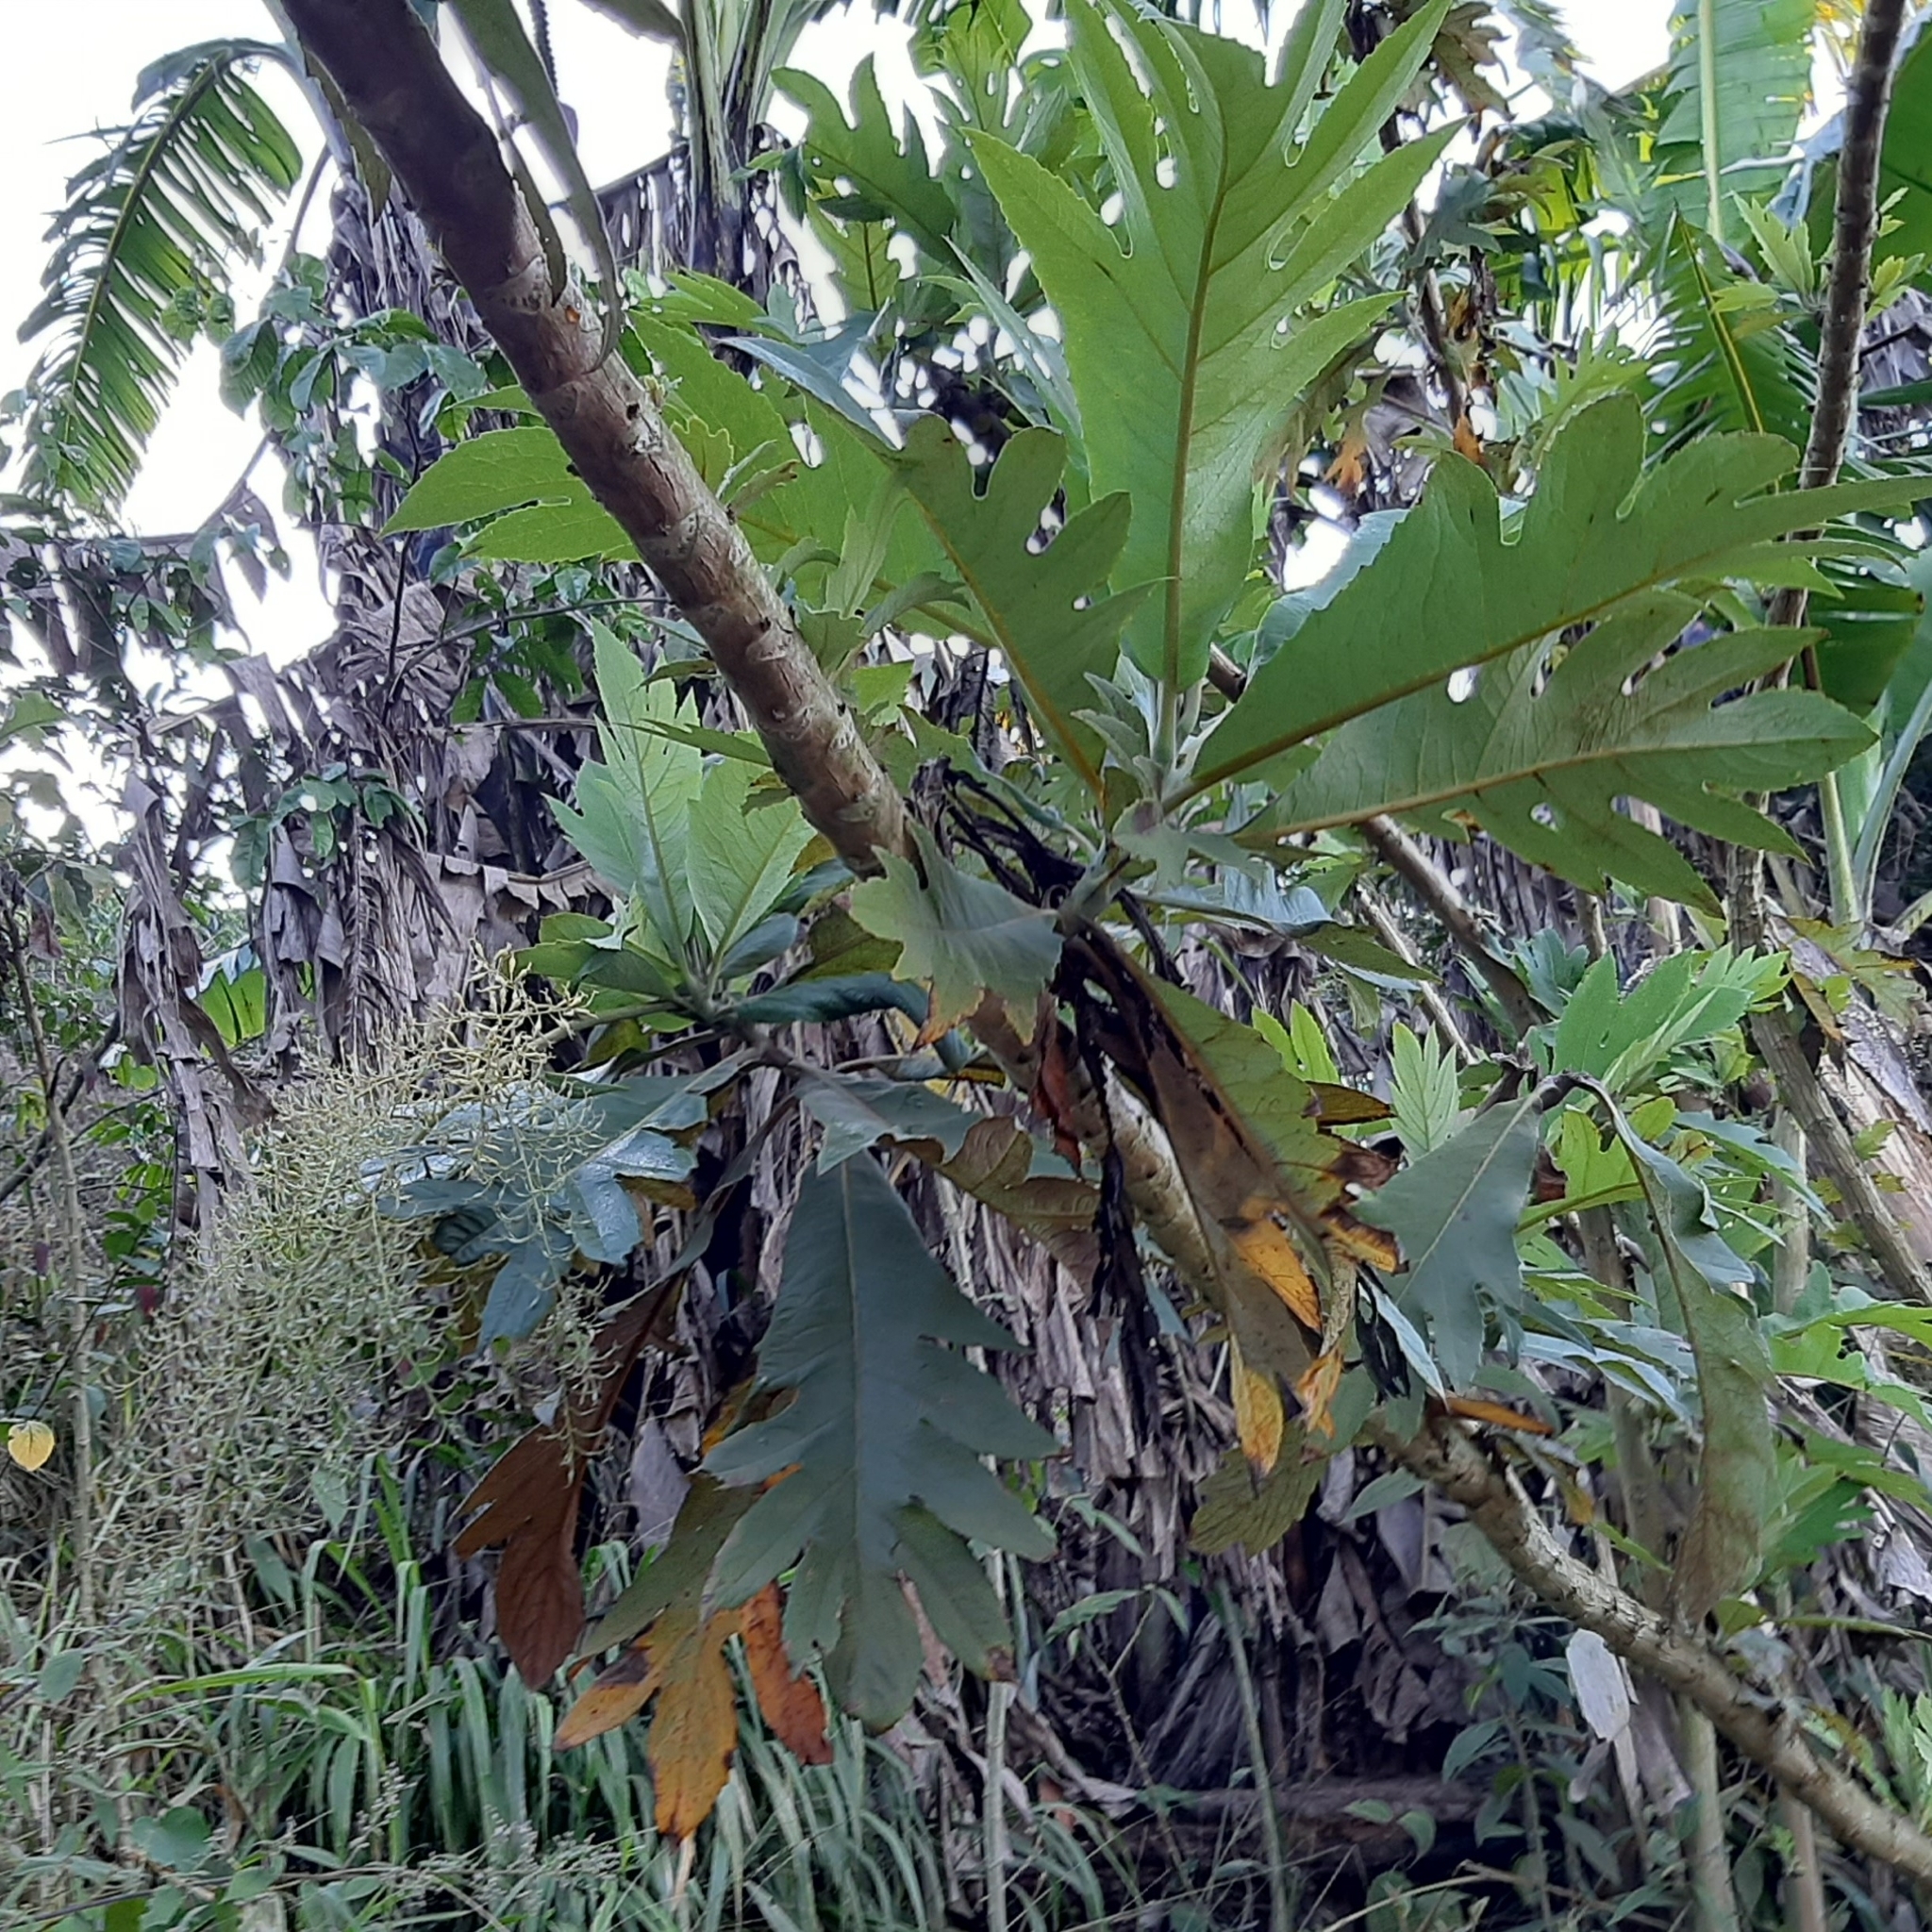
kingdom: Plantae
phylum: Tracheophyta
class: Magnoliopsida
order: Ranunculales
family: Papaveraceae
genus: Bocconia
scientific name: Bocconia frutescens
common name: Tree poppy
